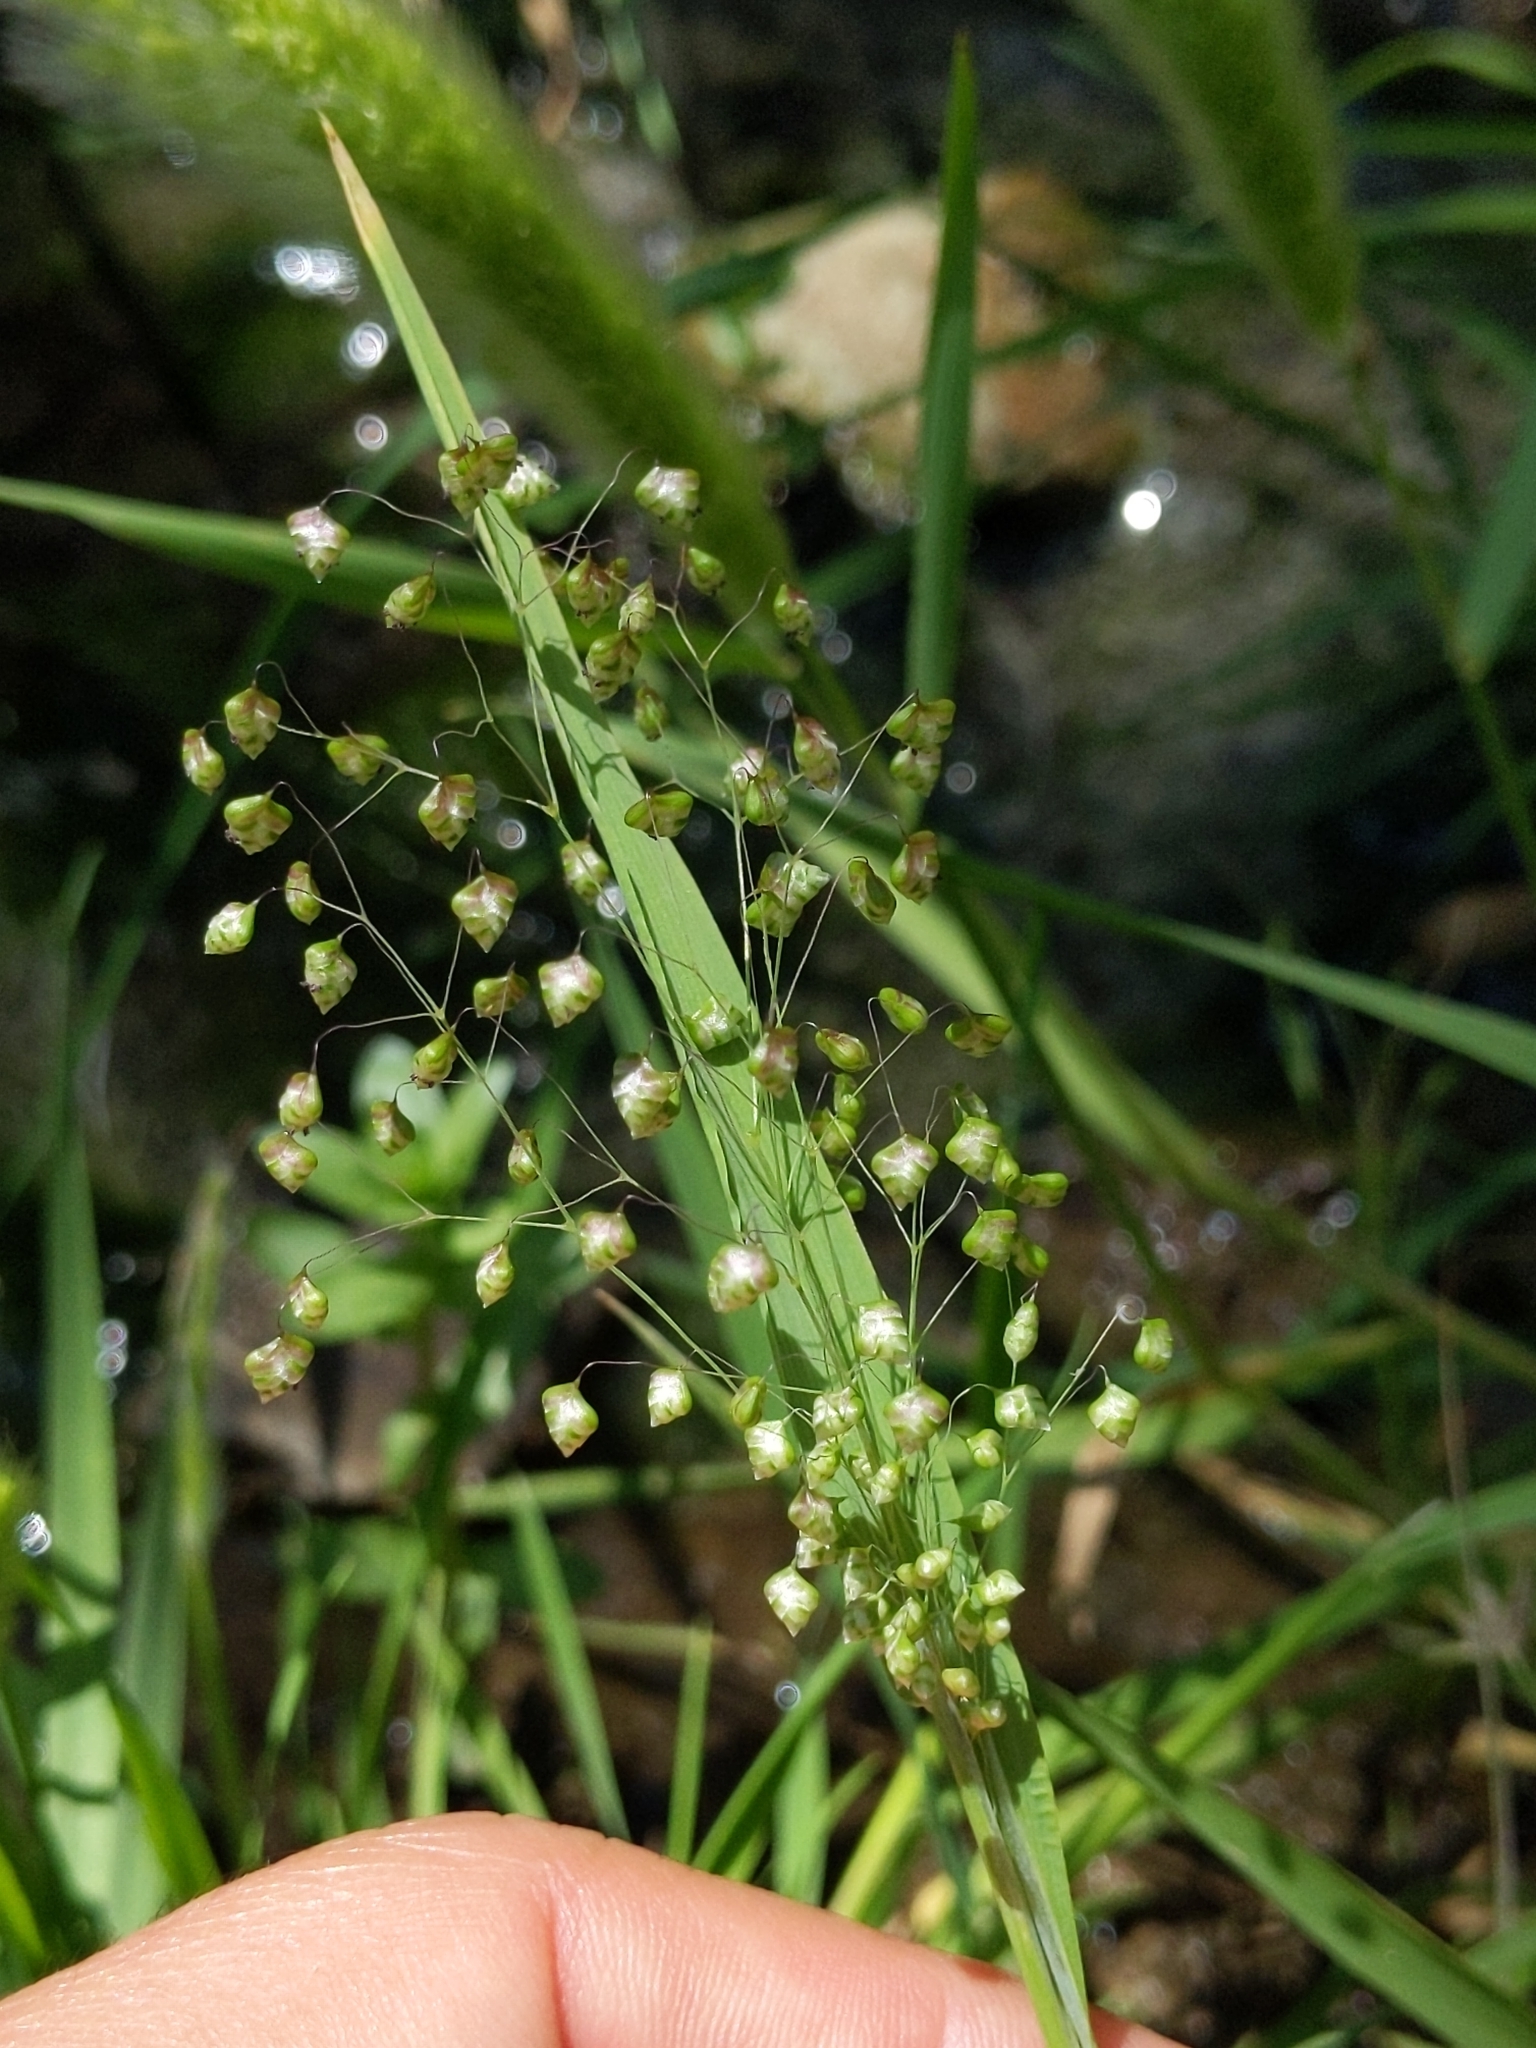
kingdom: Plantae
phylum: Tracheophyta
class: Liliopsida
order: Poales
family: Poaceae
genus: Briza
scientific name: Briza minor
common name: Lesser quaking-grass
